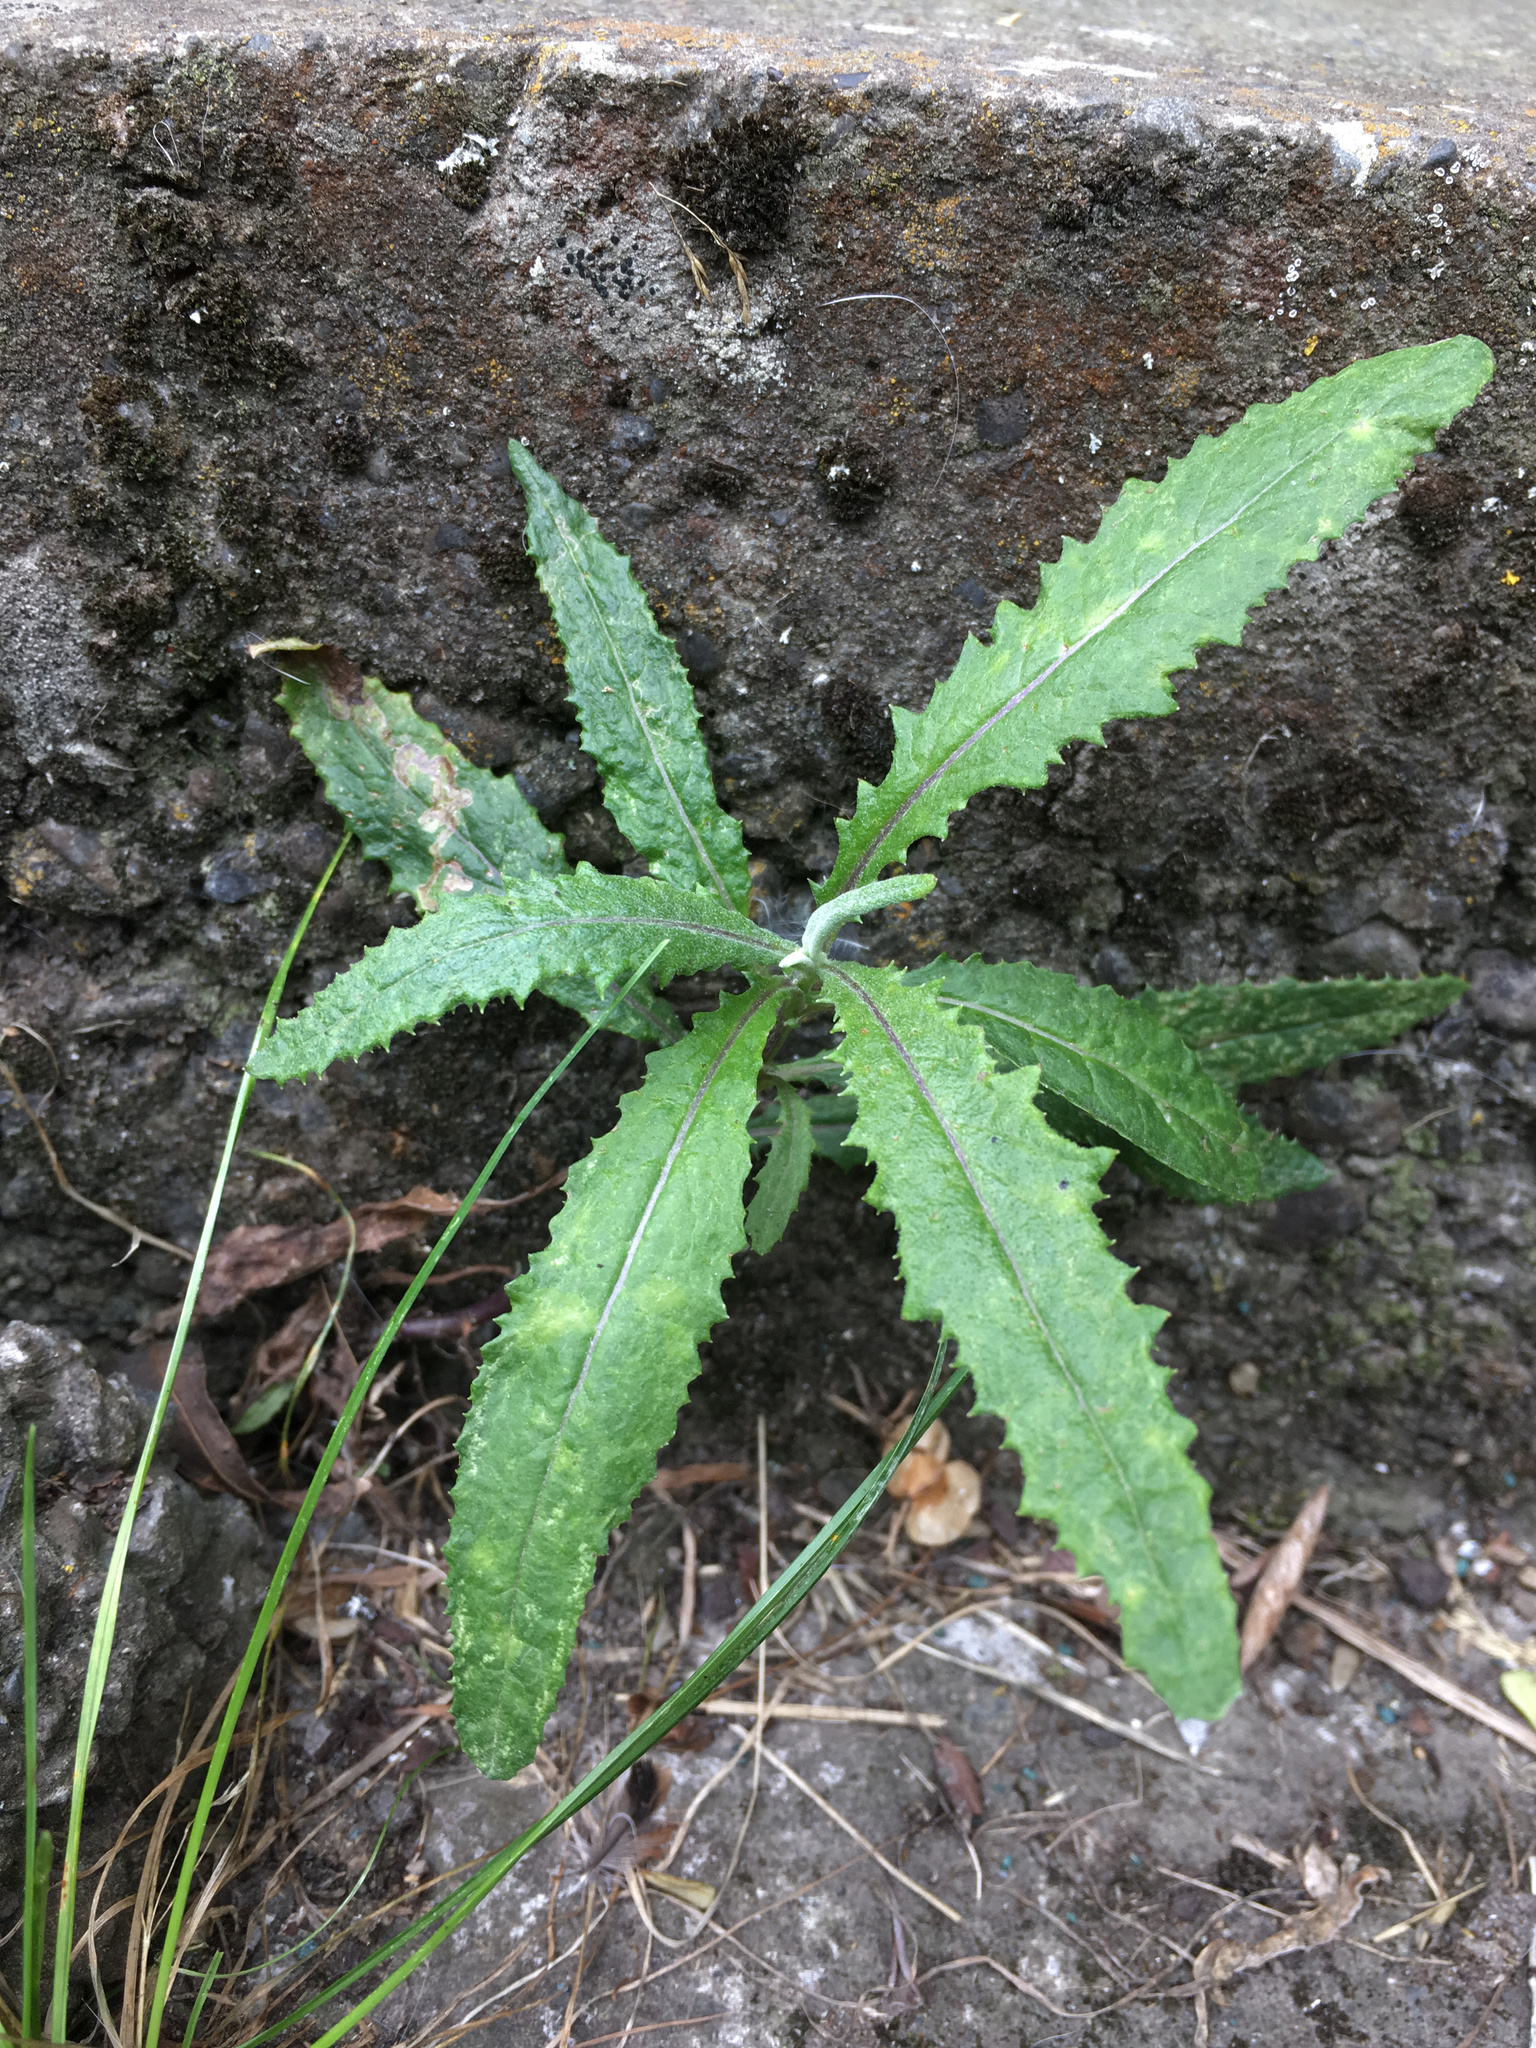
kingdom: Plantae
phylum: Tracheophyta
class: Magnoliopsida
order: Asterales
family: Asteraceae
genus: Senecio
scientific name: Senecio minimus
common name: Toothed fireweed
